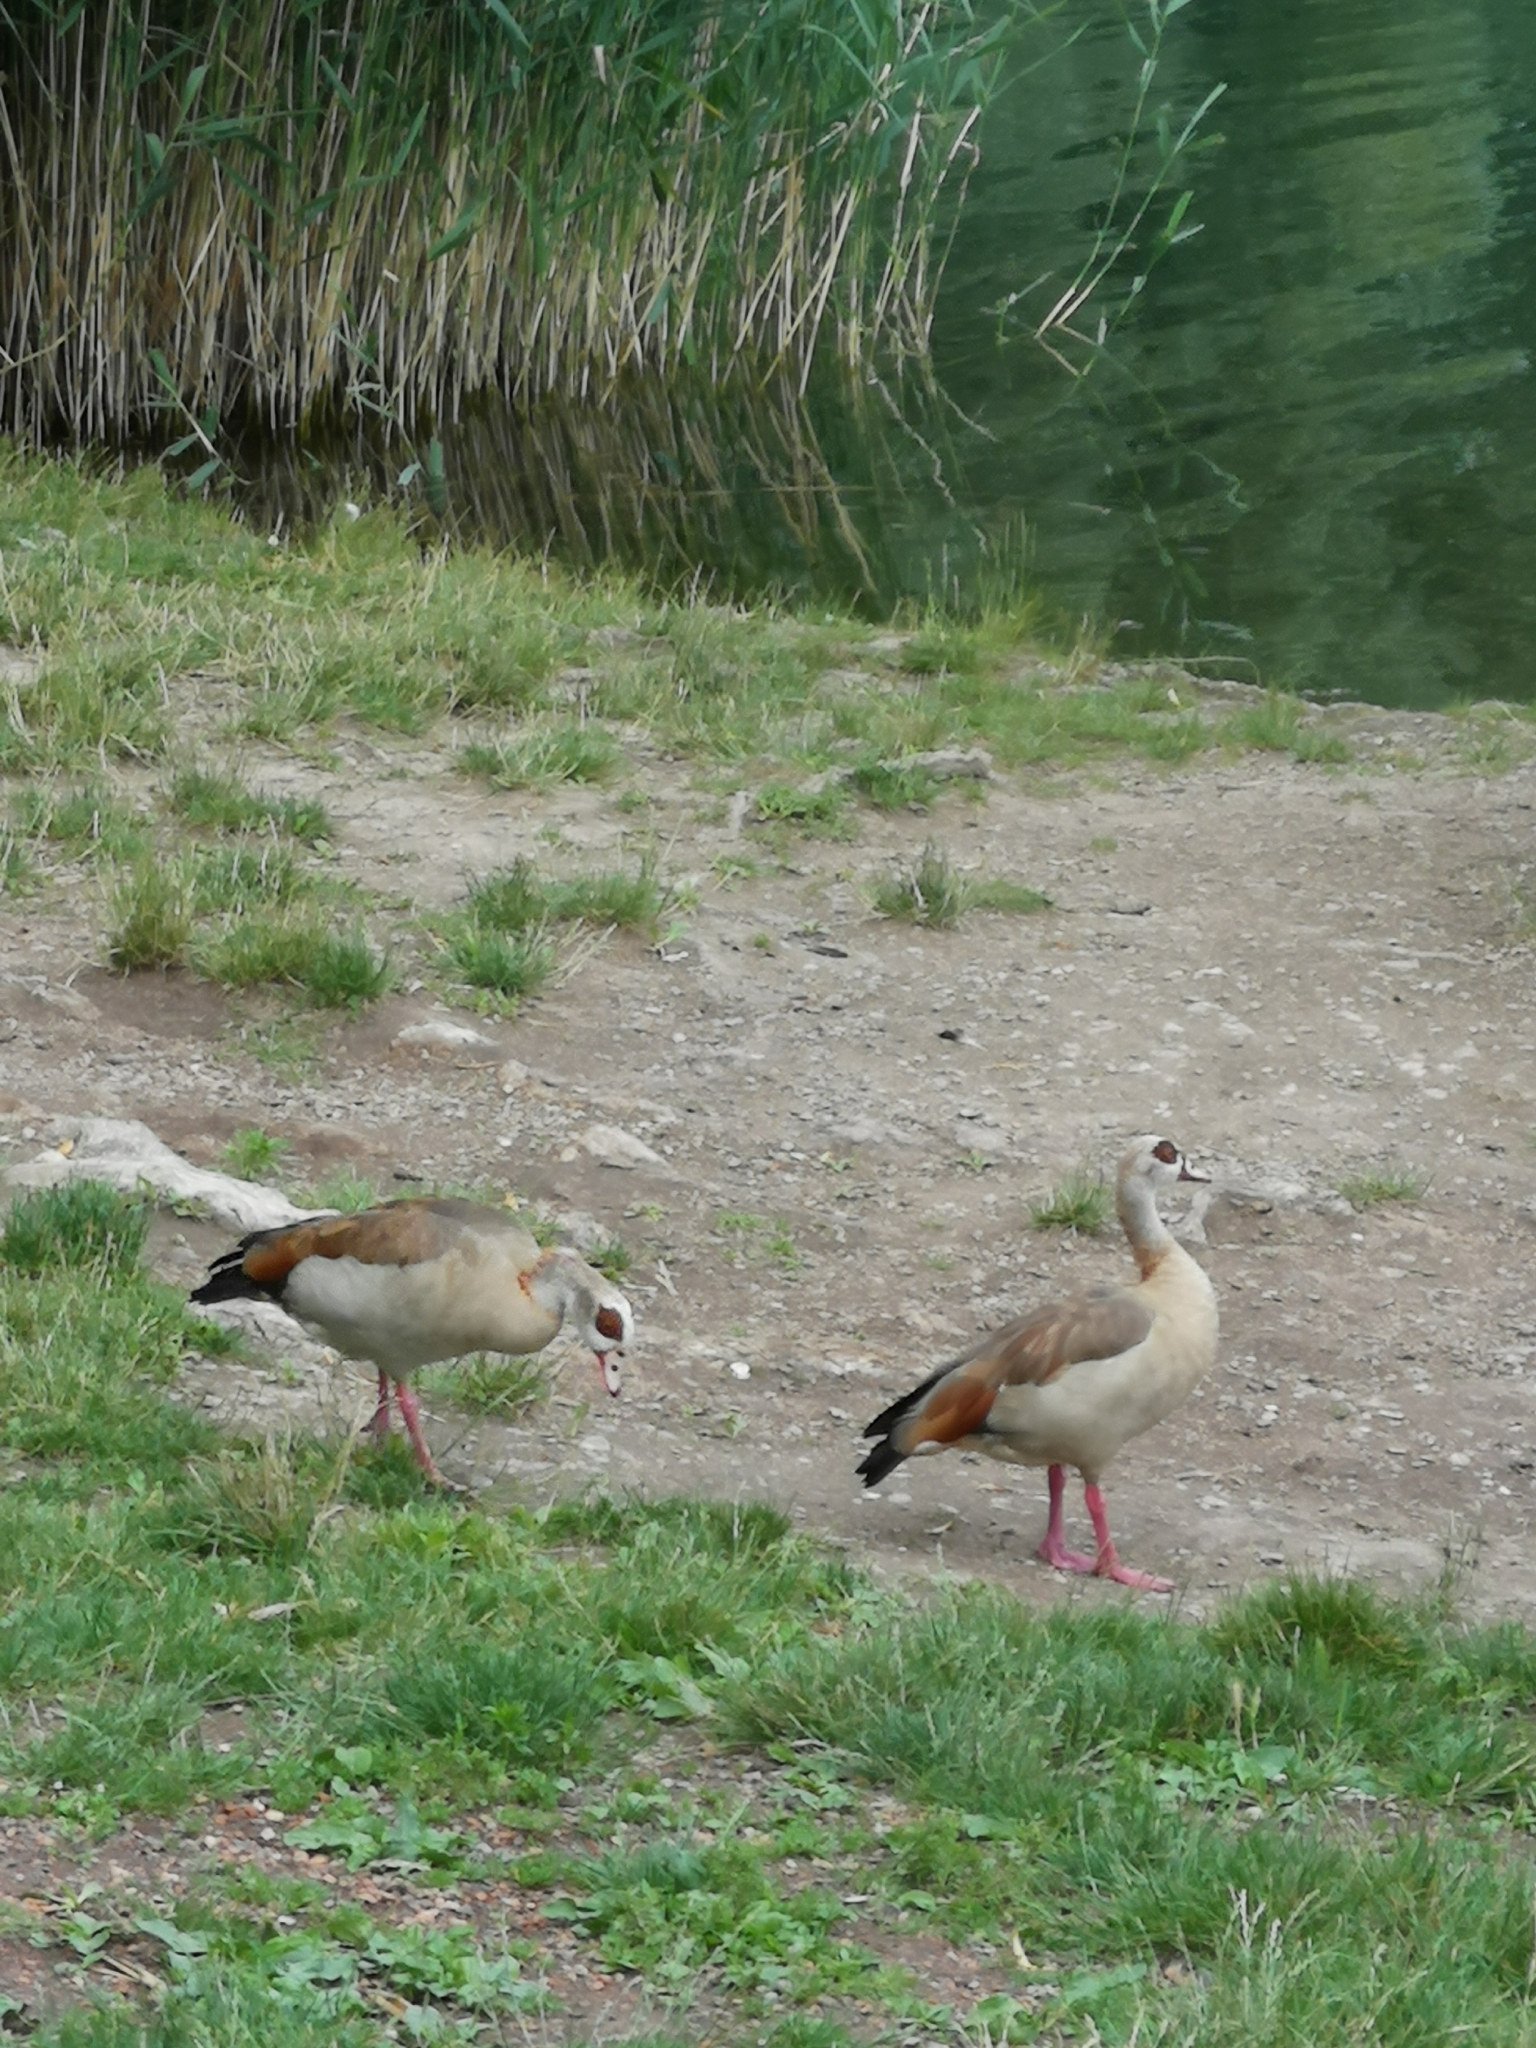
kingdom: Animalia
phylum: Chordata
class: Aves
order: Anseriformes
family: Anatidae
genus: Alopochen
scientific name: Alopochen aegyptiaca
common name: Egyptian goose
